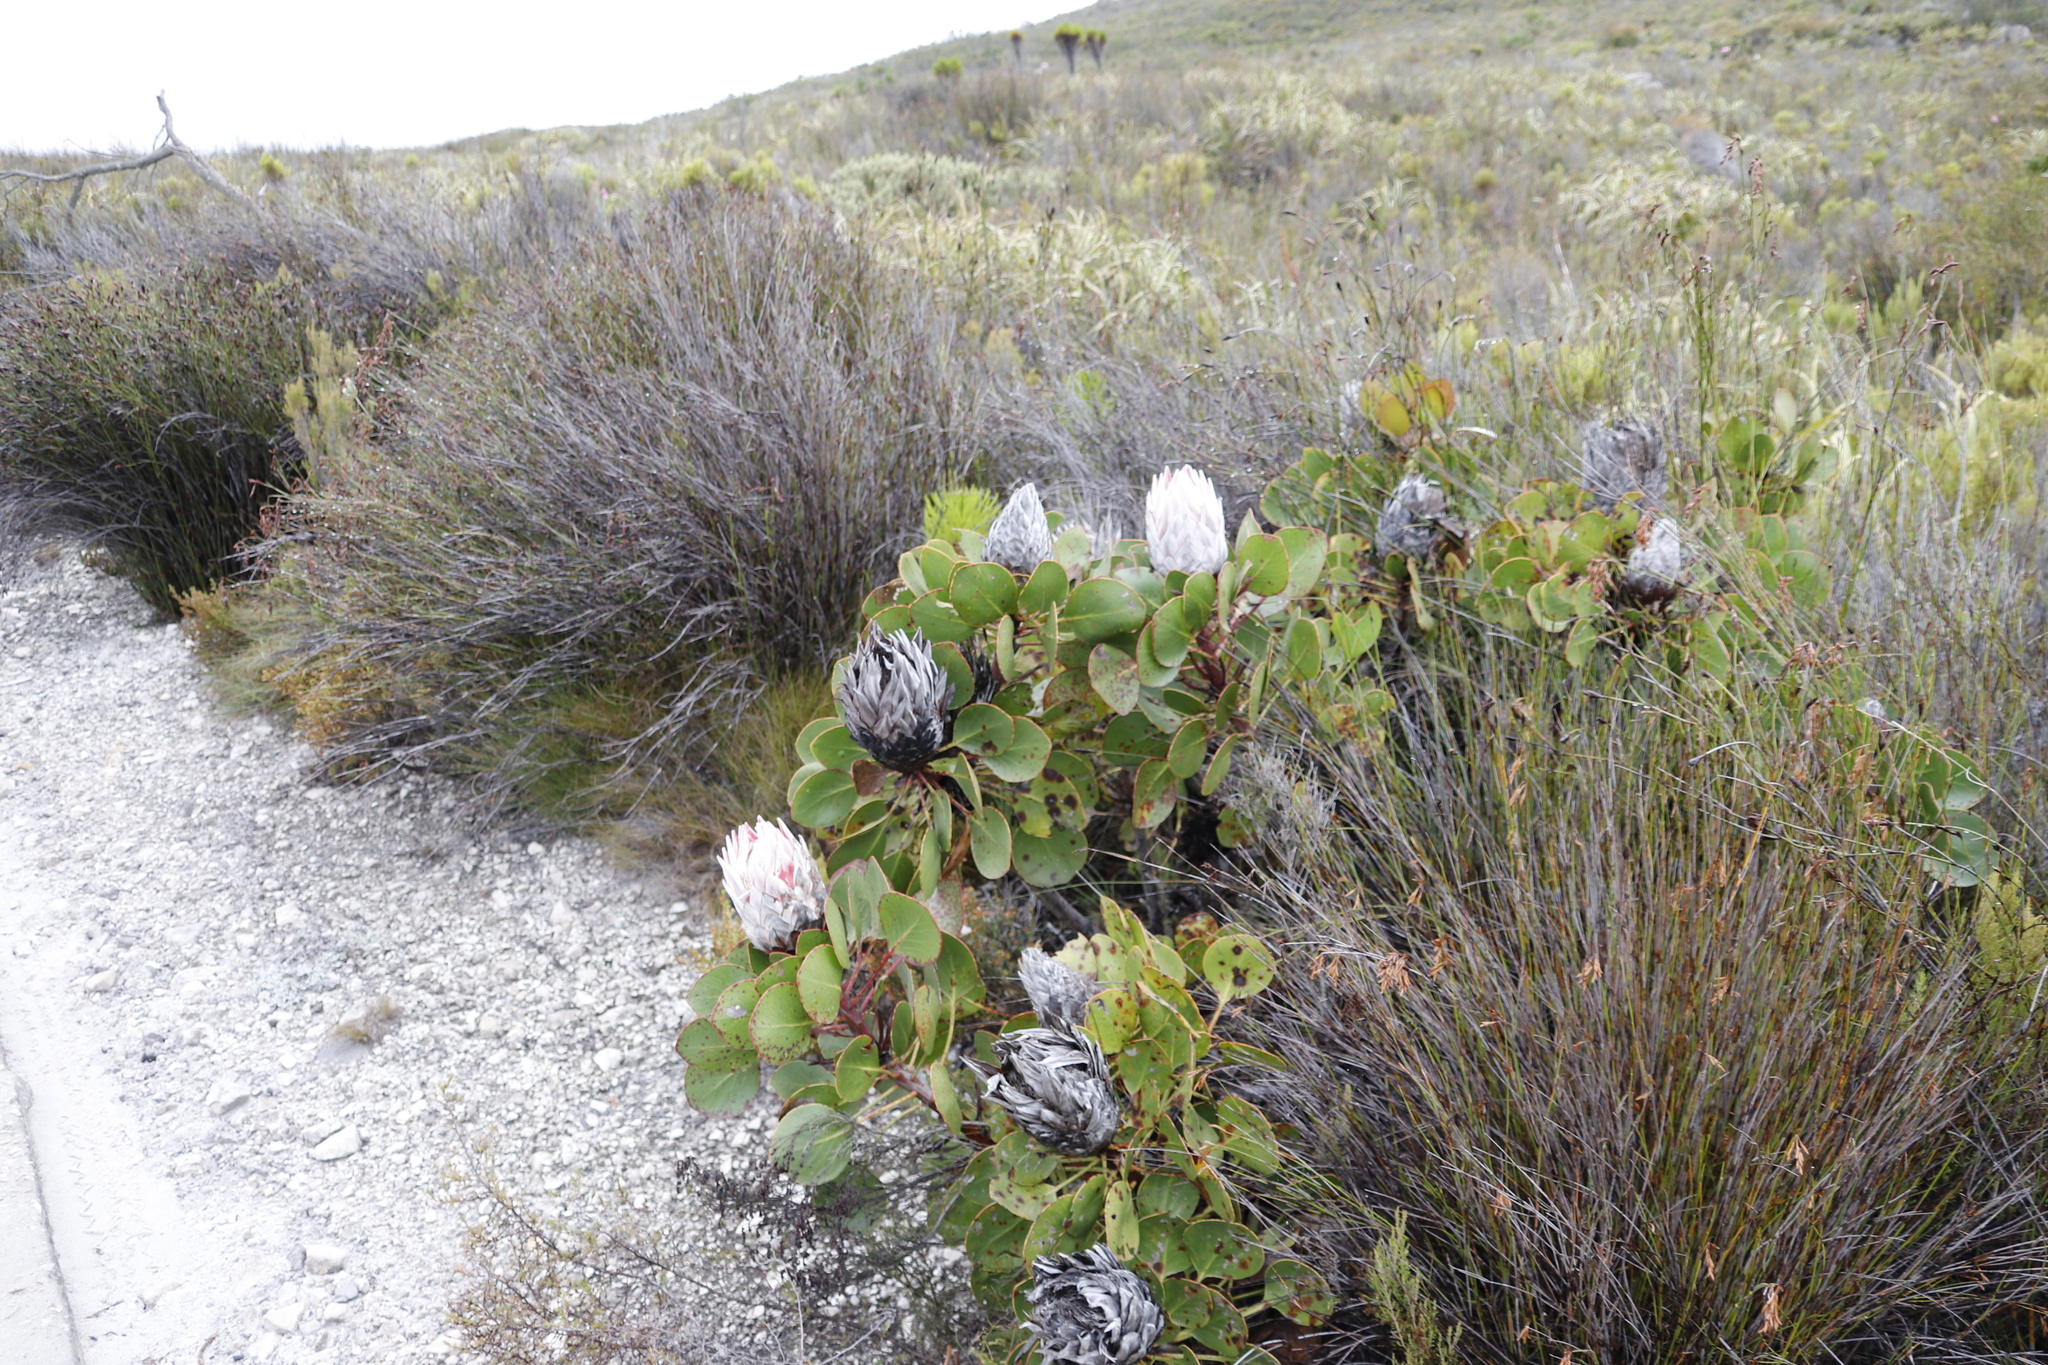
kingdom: Plantae
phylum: Tracheophyta
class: Magnoliopsida
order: Proteales
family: Proteaceae
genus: Protea
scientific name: Protea cynaroides
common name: King protea
